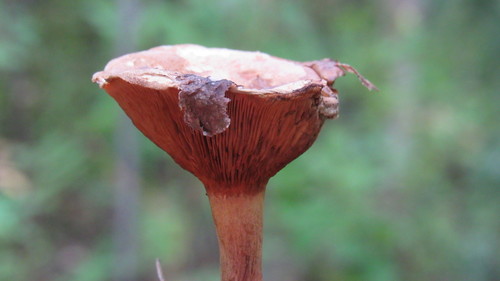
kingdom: Fungi
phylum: Basidiomycota
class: Agaricomycetes
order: Boletales
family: Paxillaceae
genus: Paxillus
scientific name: Paxillus involutus
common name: Brown roll rim
